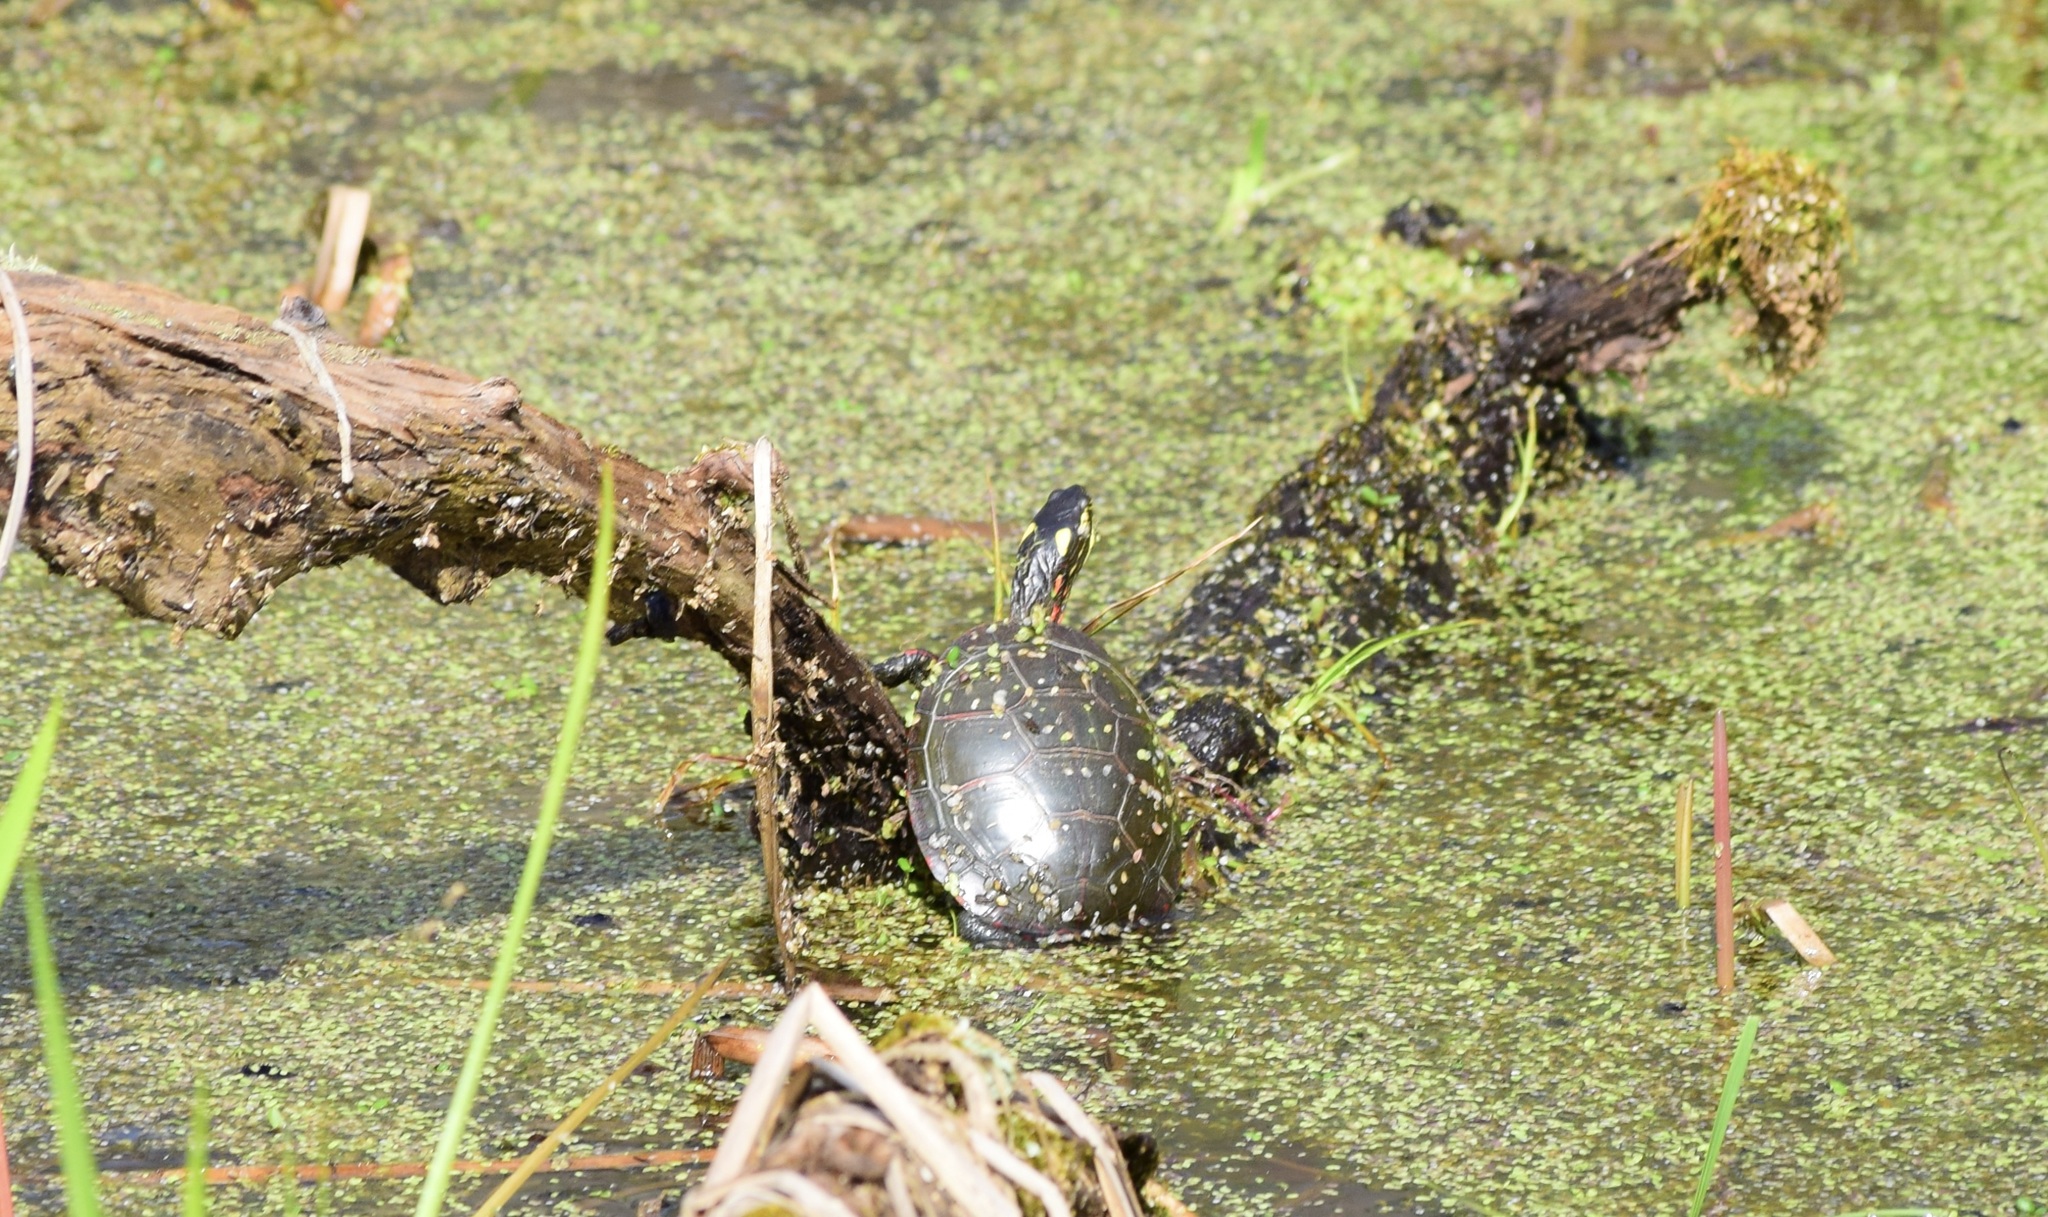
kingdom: Animalia
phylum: Chordata
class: Testudines
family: Emydidae
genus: Chrysemys
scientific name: Chrysemys picta
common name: Painted turtle
